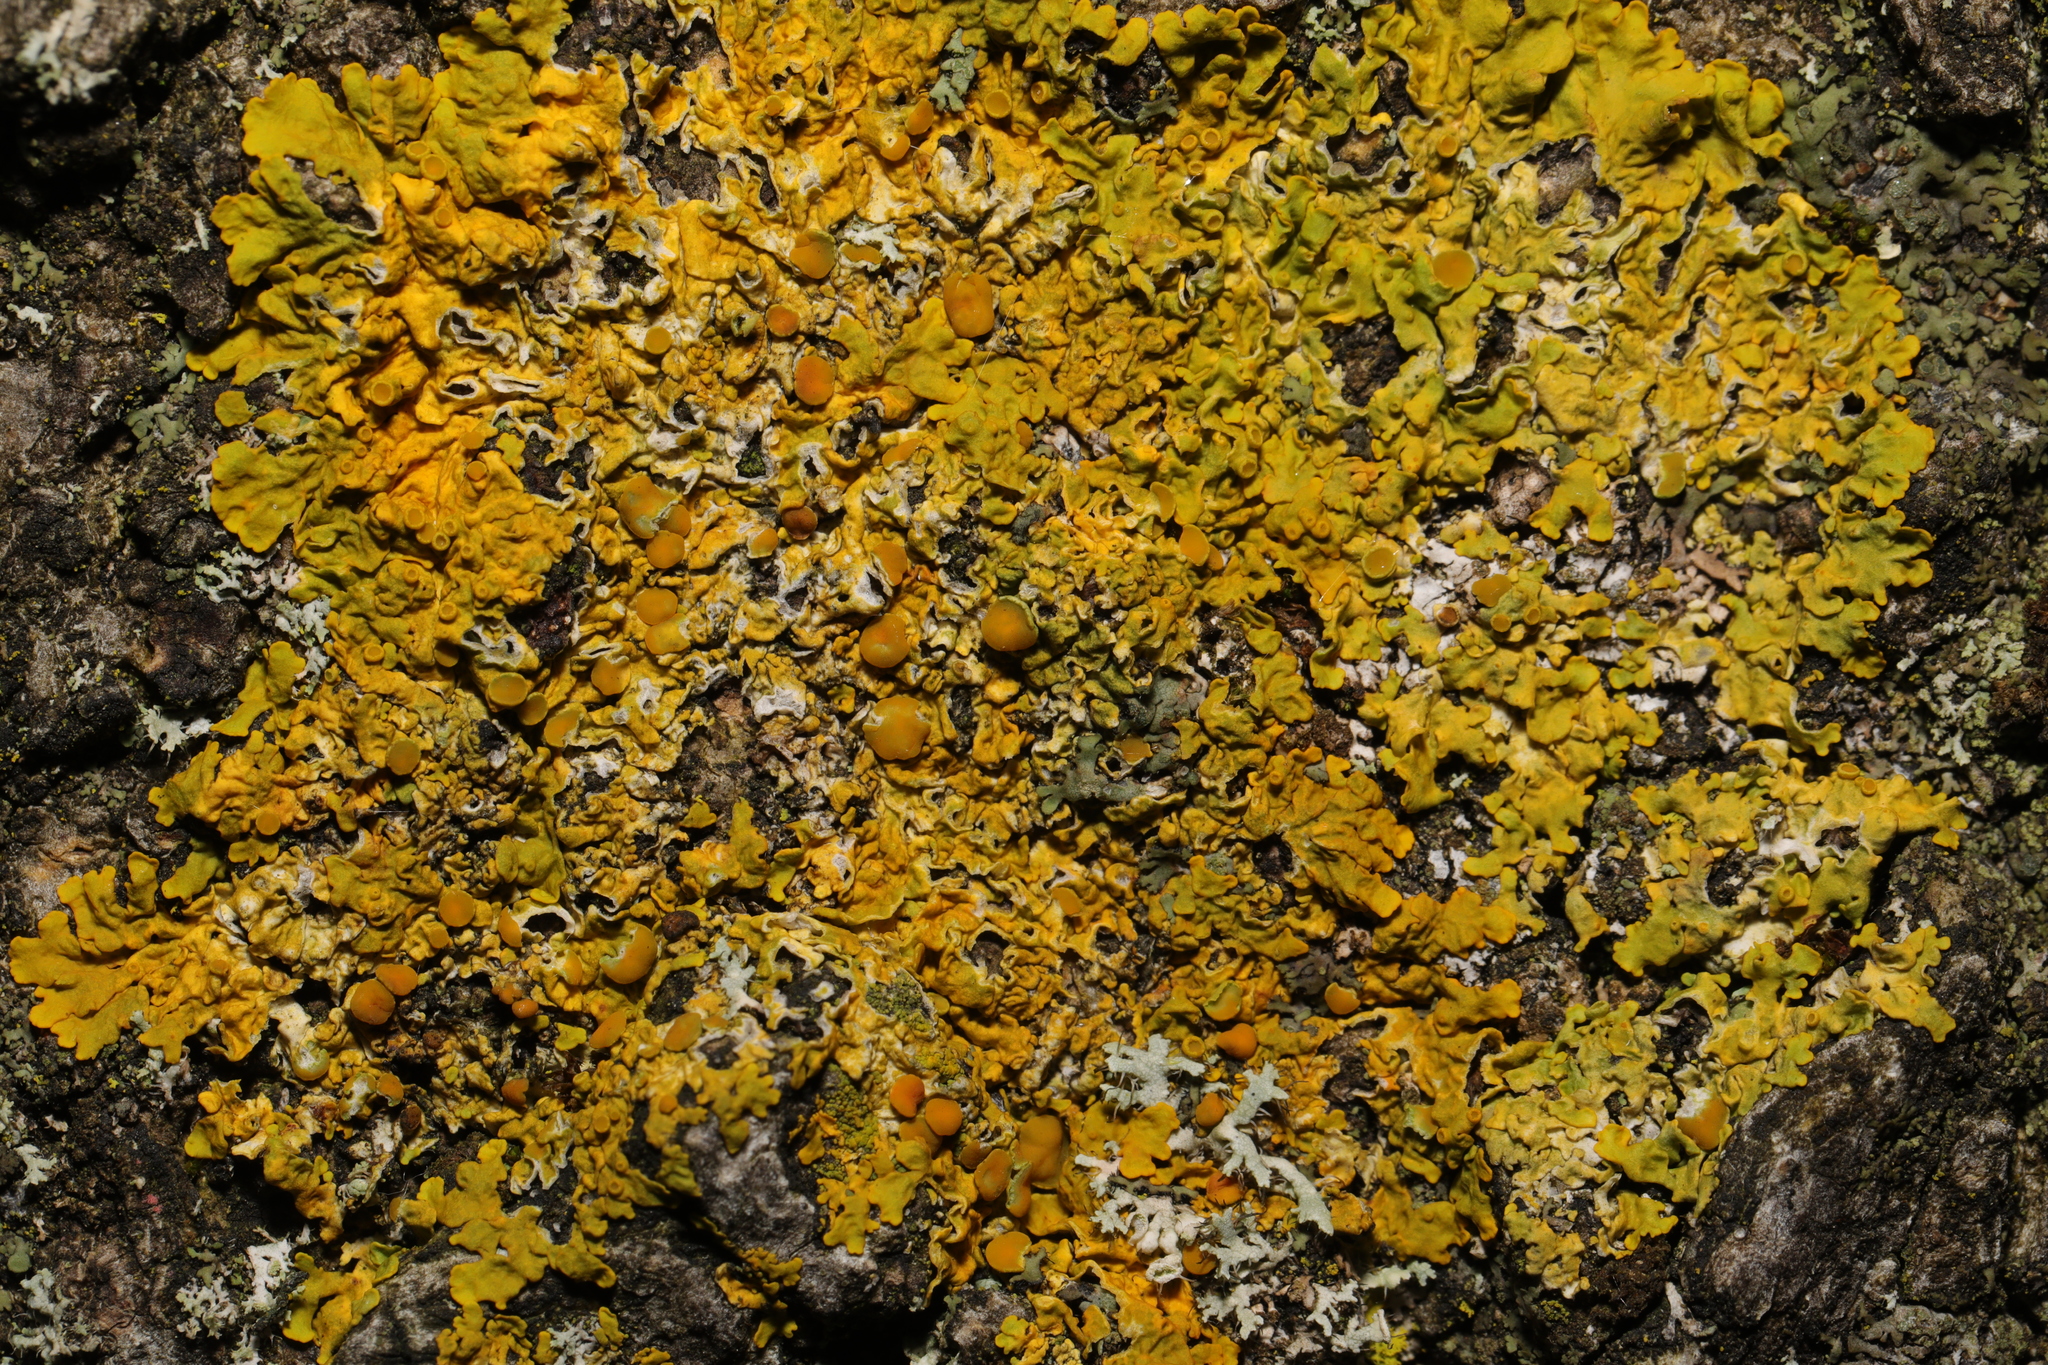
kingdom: Fungi
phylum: Ascomycota
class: Lecanoromycetes
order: Teloschistales
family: Teloschistaceae
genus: Xanthoria
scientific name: Xanthoria parietina
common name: Common orange lichen
